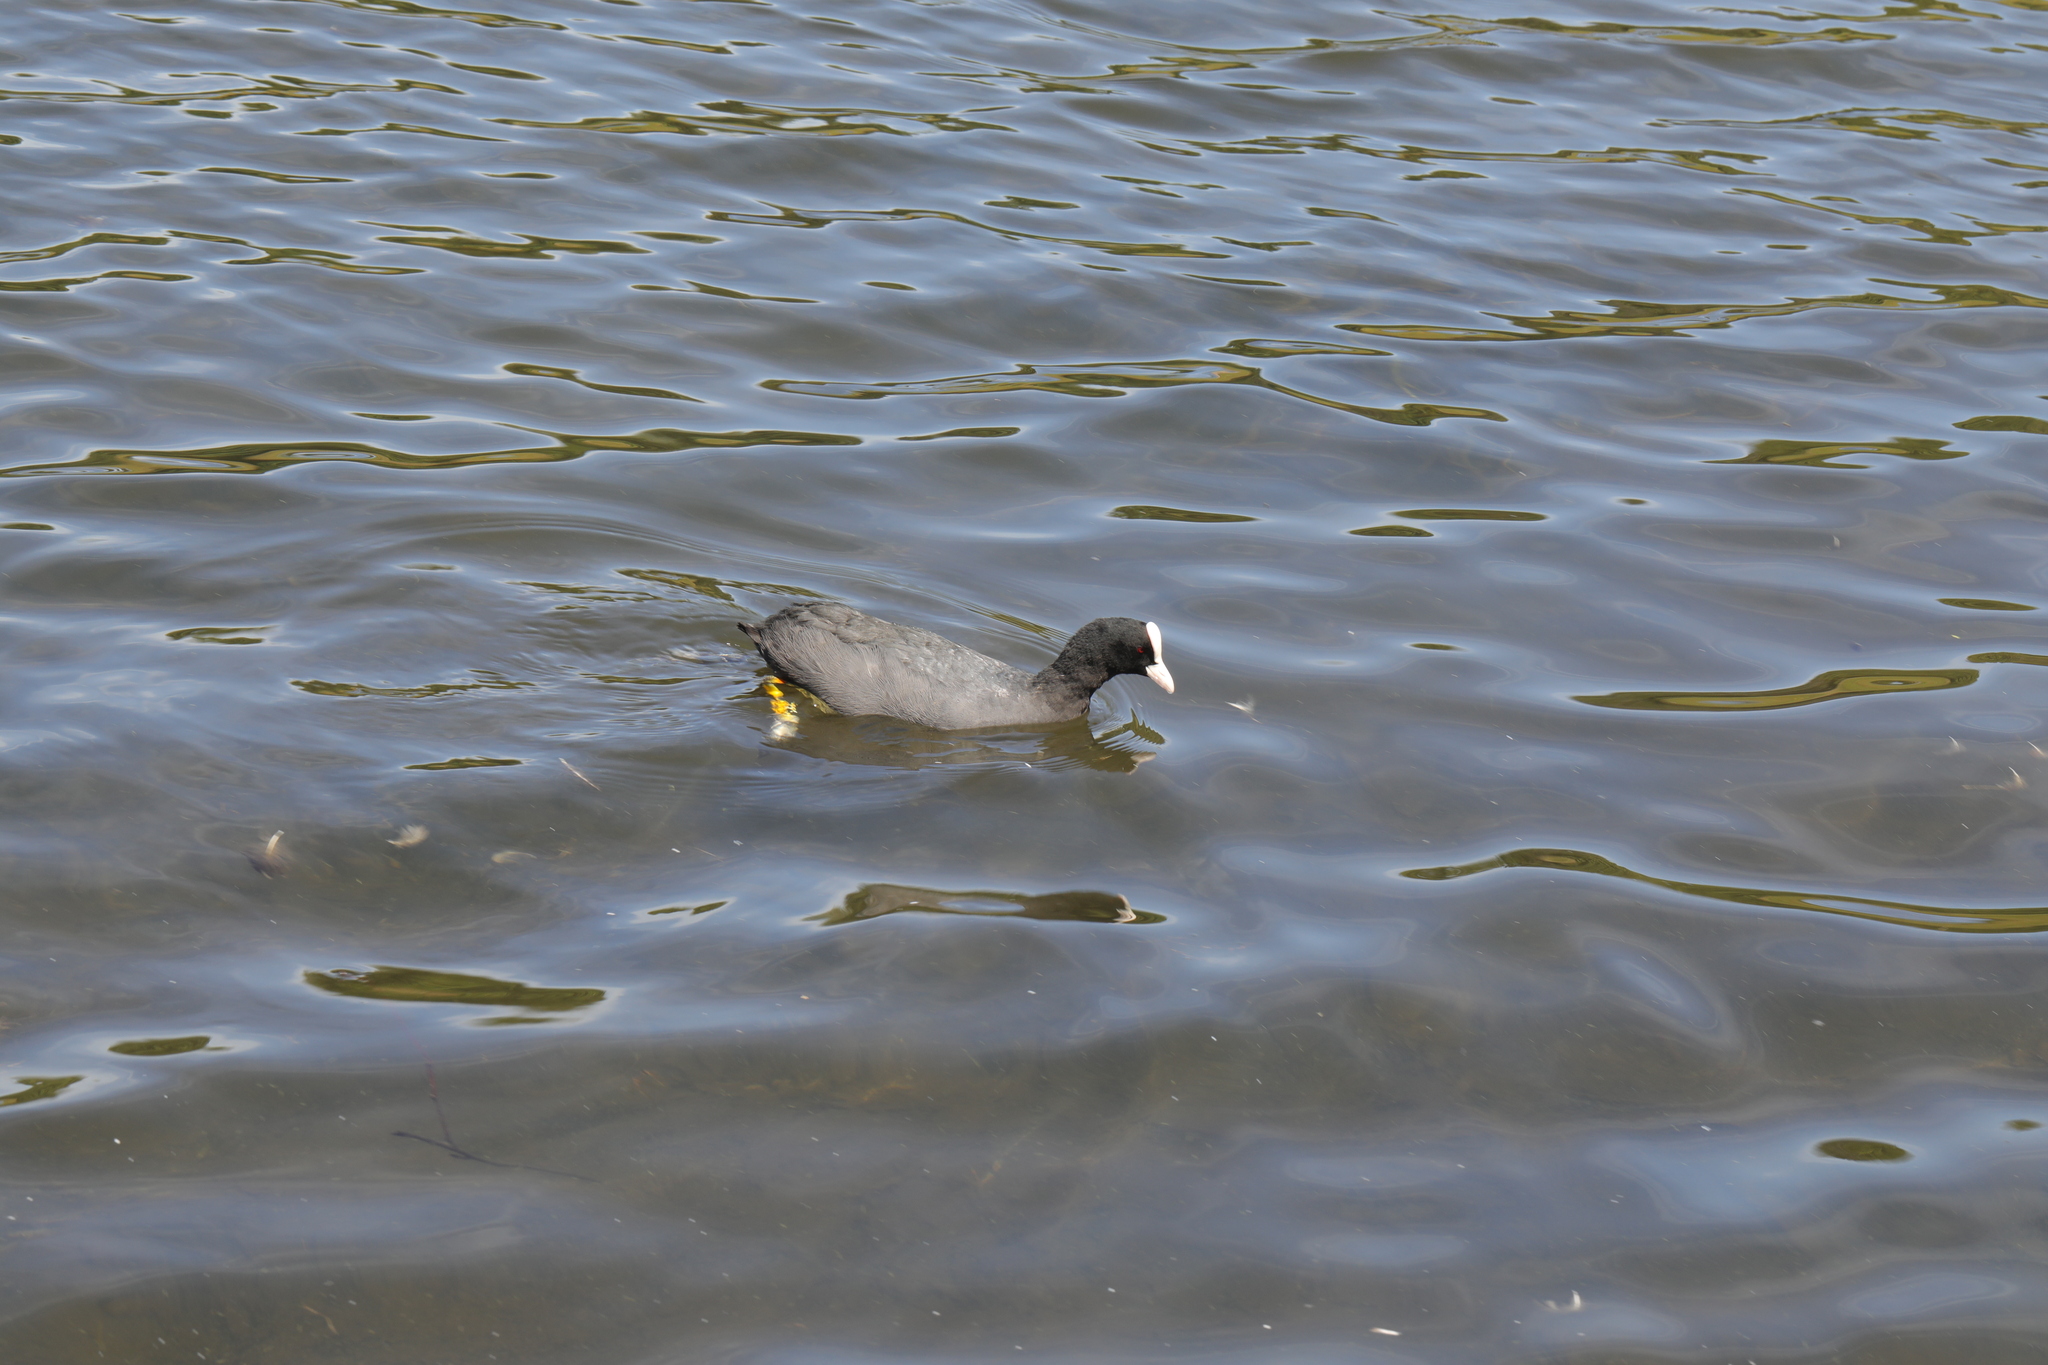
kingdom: Animalia
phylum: Chordata
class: Aves
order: Gruiformes
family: Rallidae
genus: Fulica
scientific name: Fulica atra
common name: Eurasian coot
